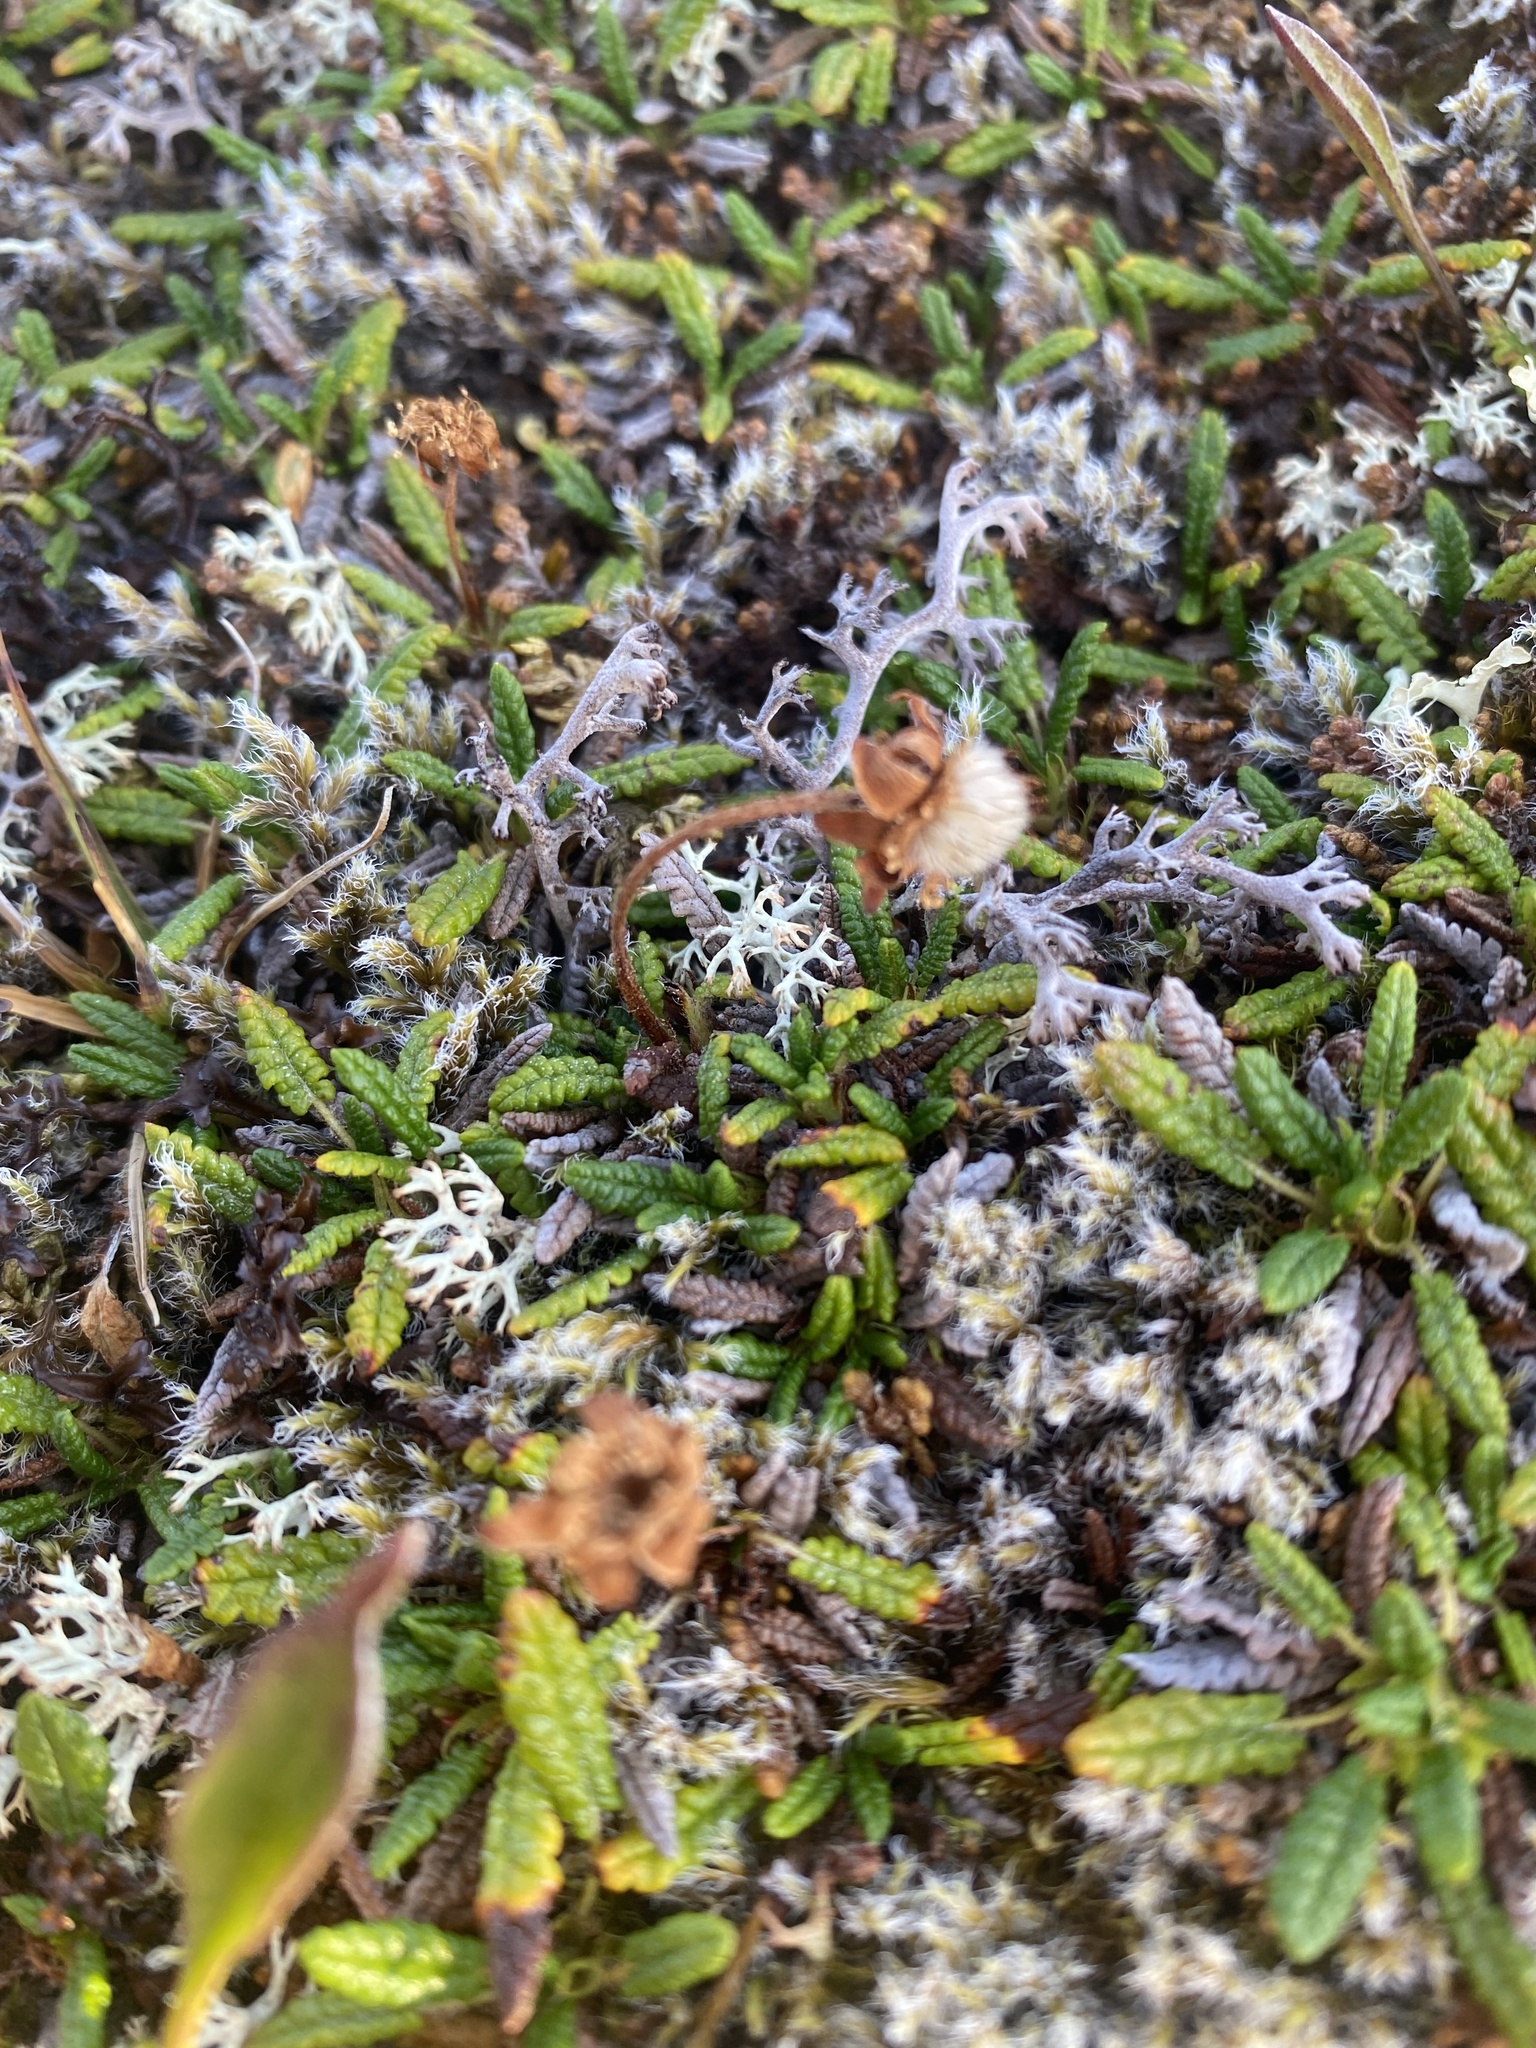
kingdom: Plantae
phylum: Tracheophyta
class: Magnoliopsida
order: Rosales
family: Rosaceae
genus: Dryas
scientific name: Dryas octopetala
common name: Eight-petal mountain-avens
